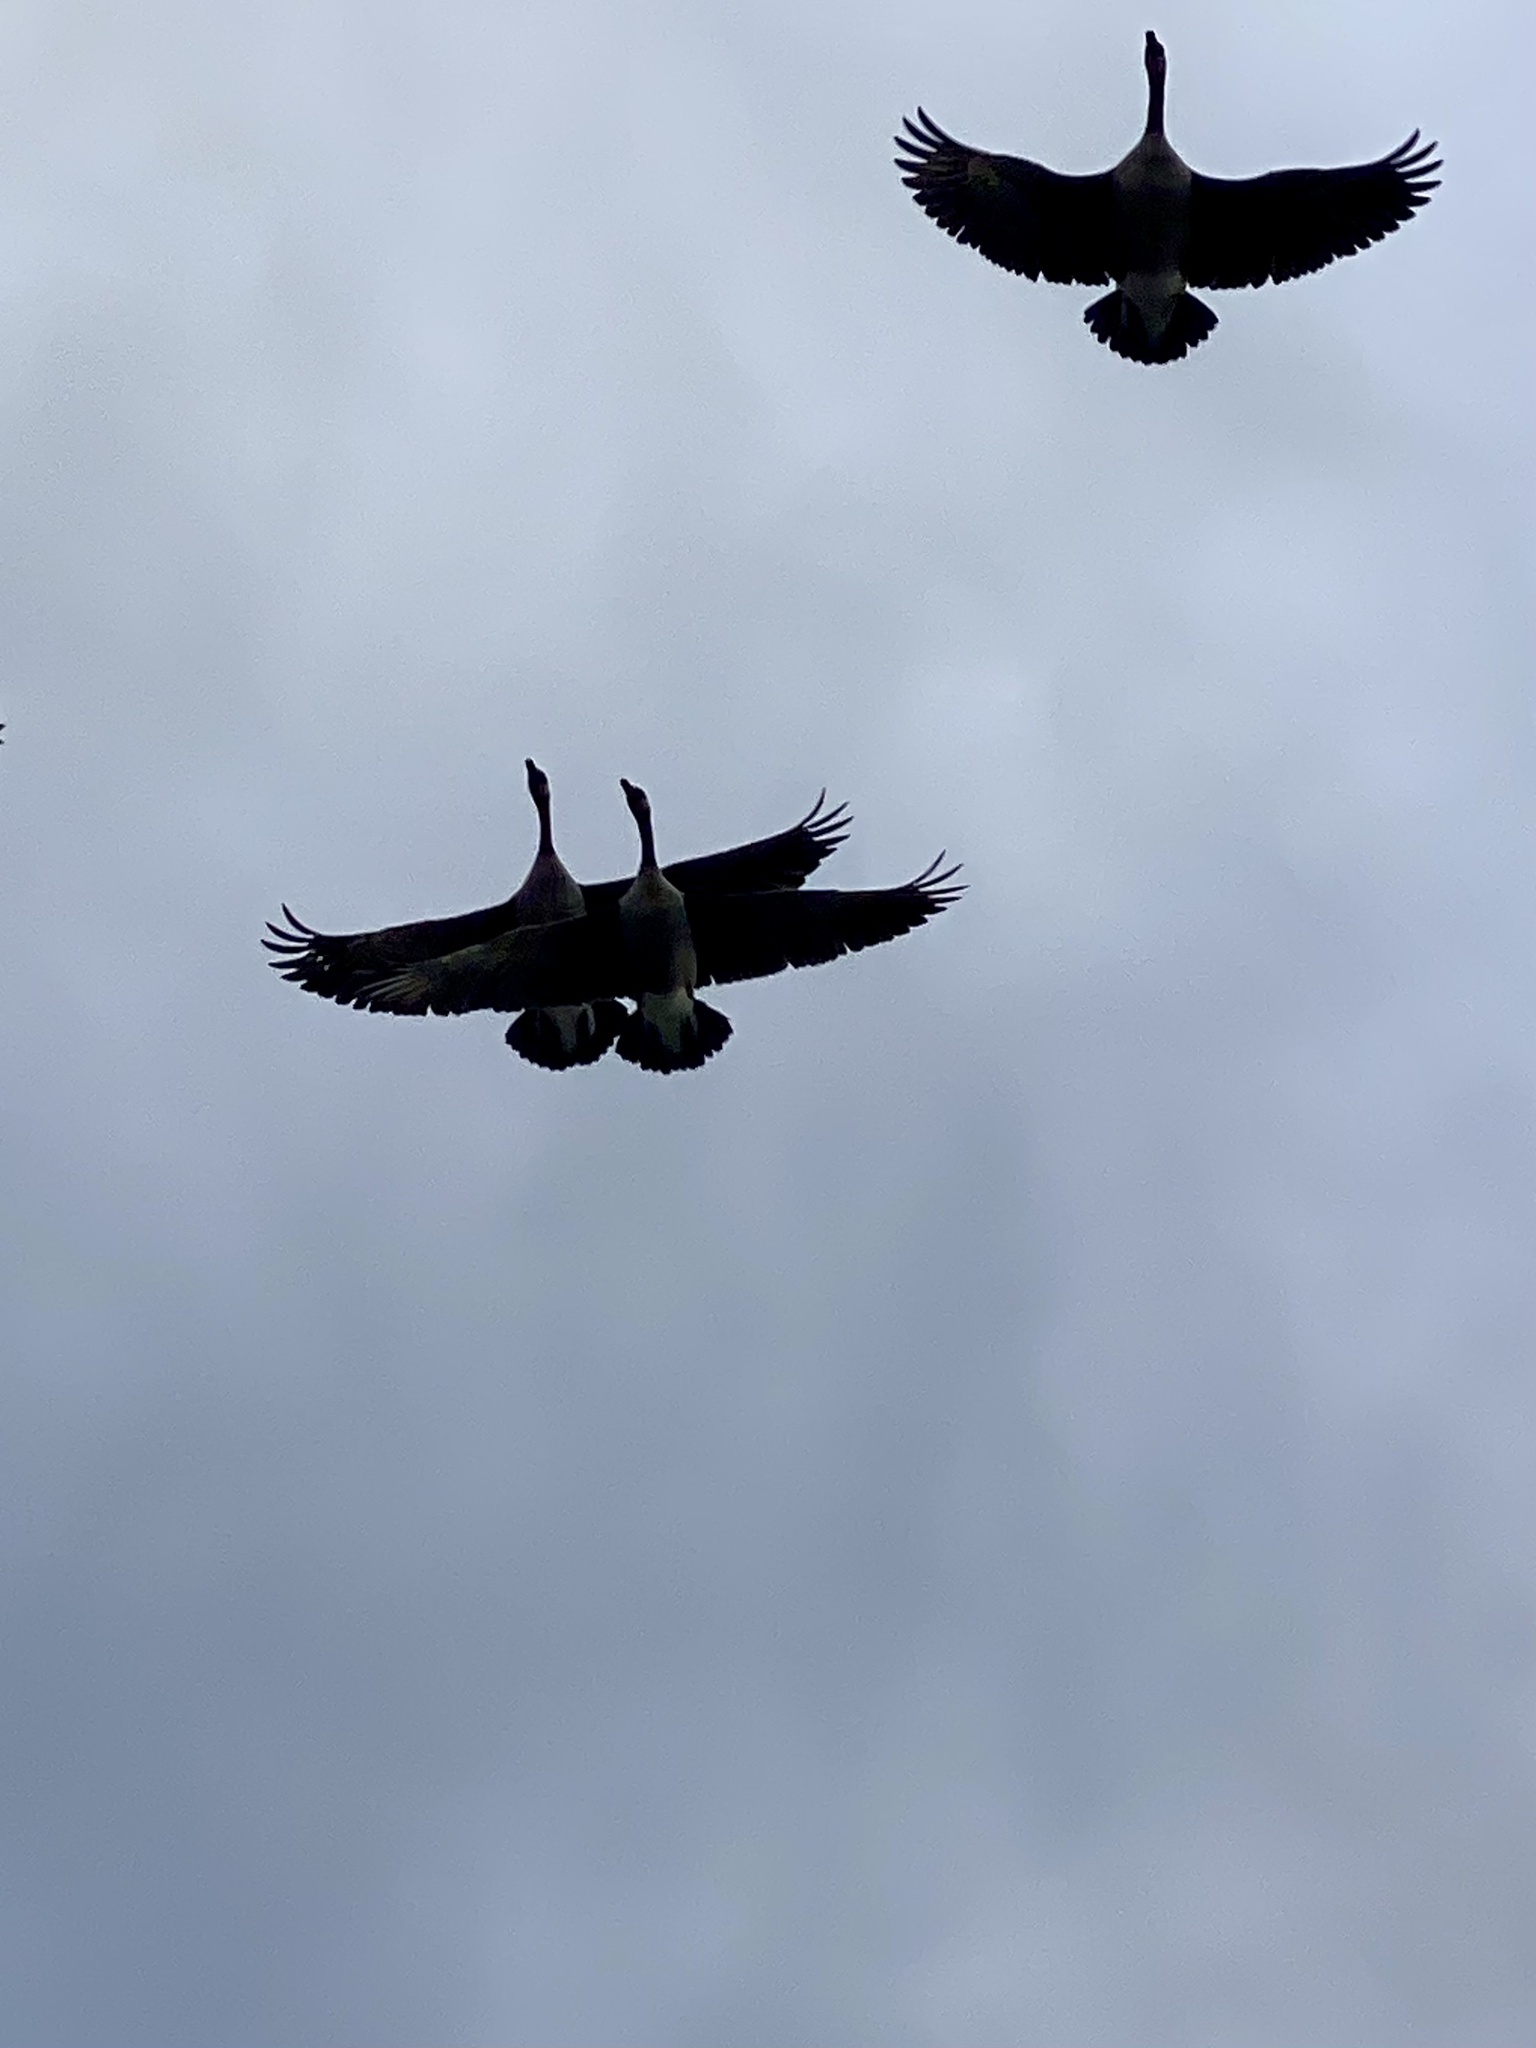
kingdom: Animalia
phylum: Chordata
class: Aves
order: Anseriformes
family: Anatidae
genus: Branta
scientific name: Branta canadensis
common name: Canada goose
